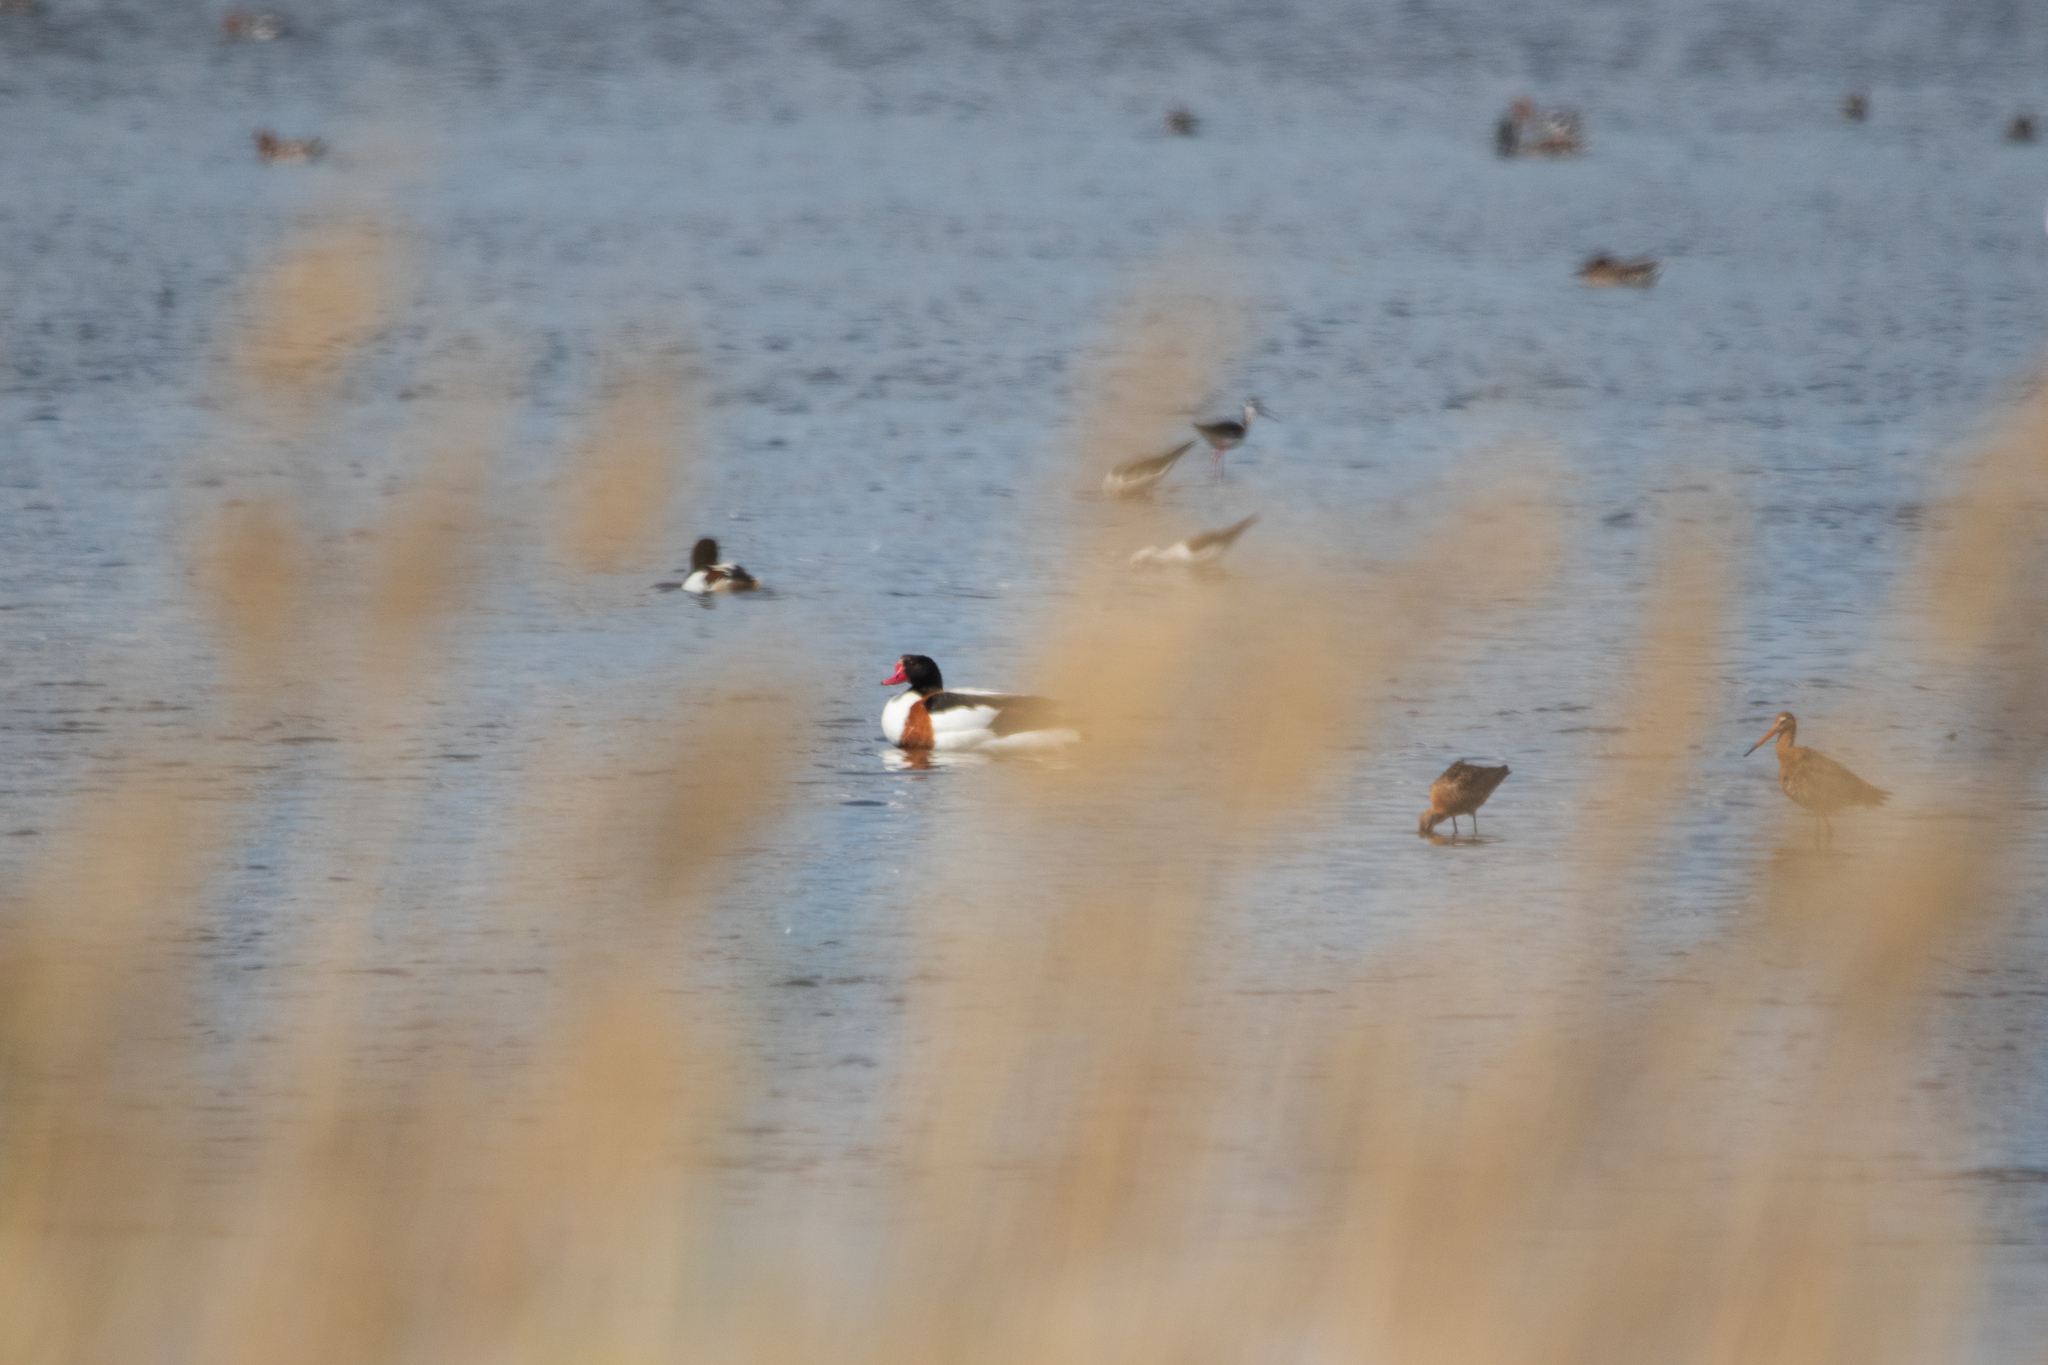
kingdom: Animalia
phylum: Chordata
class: Aves
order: Anseriformes
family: Anatidae
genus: Tadorna
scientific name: Tadorna tadorna
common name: Common shelduck
